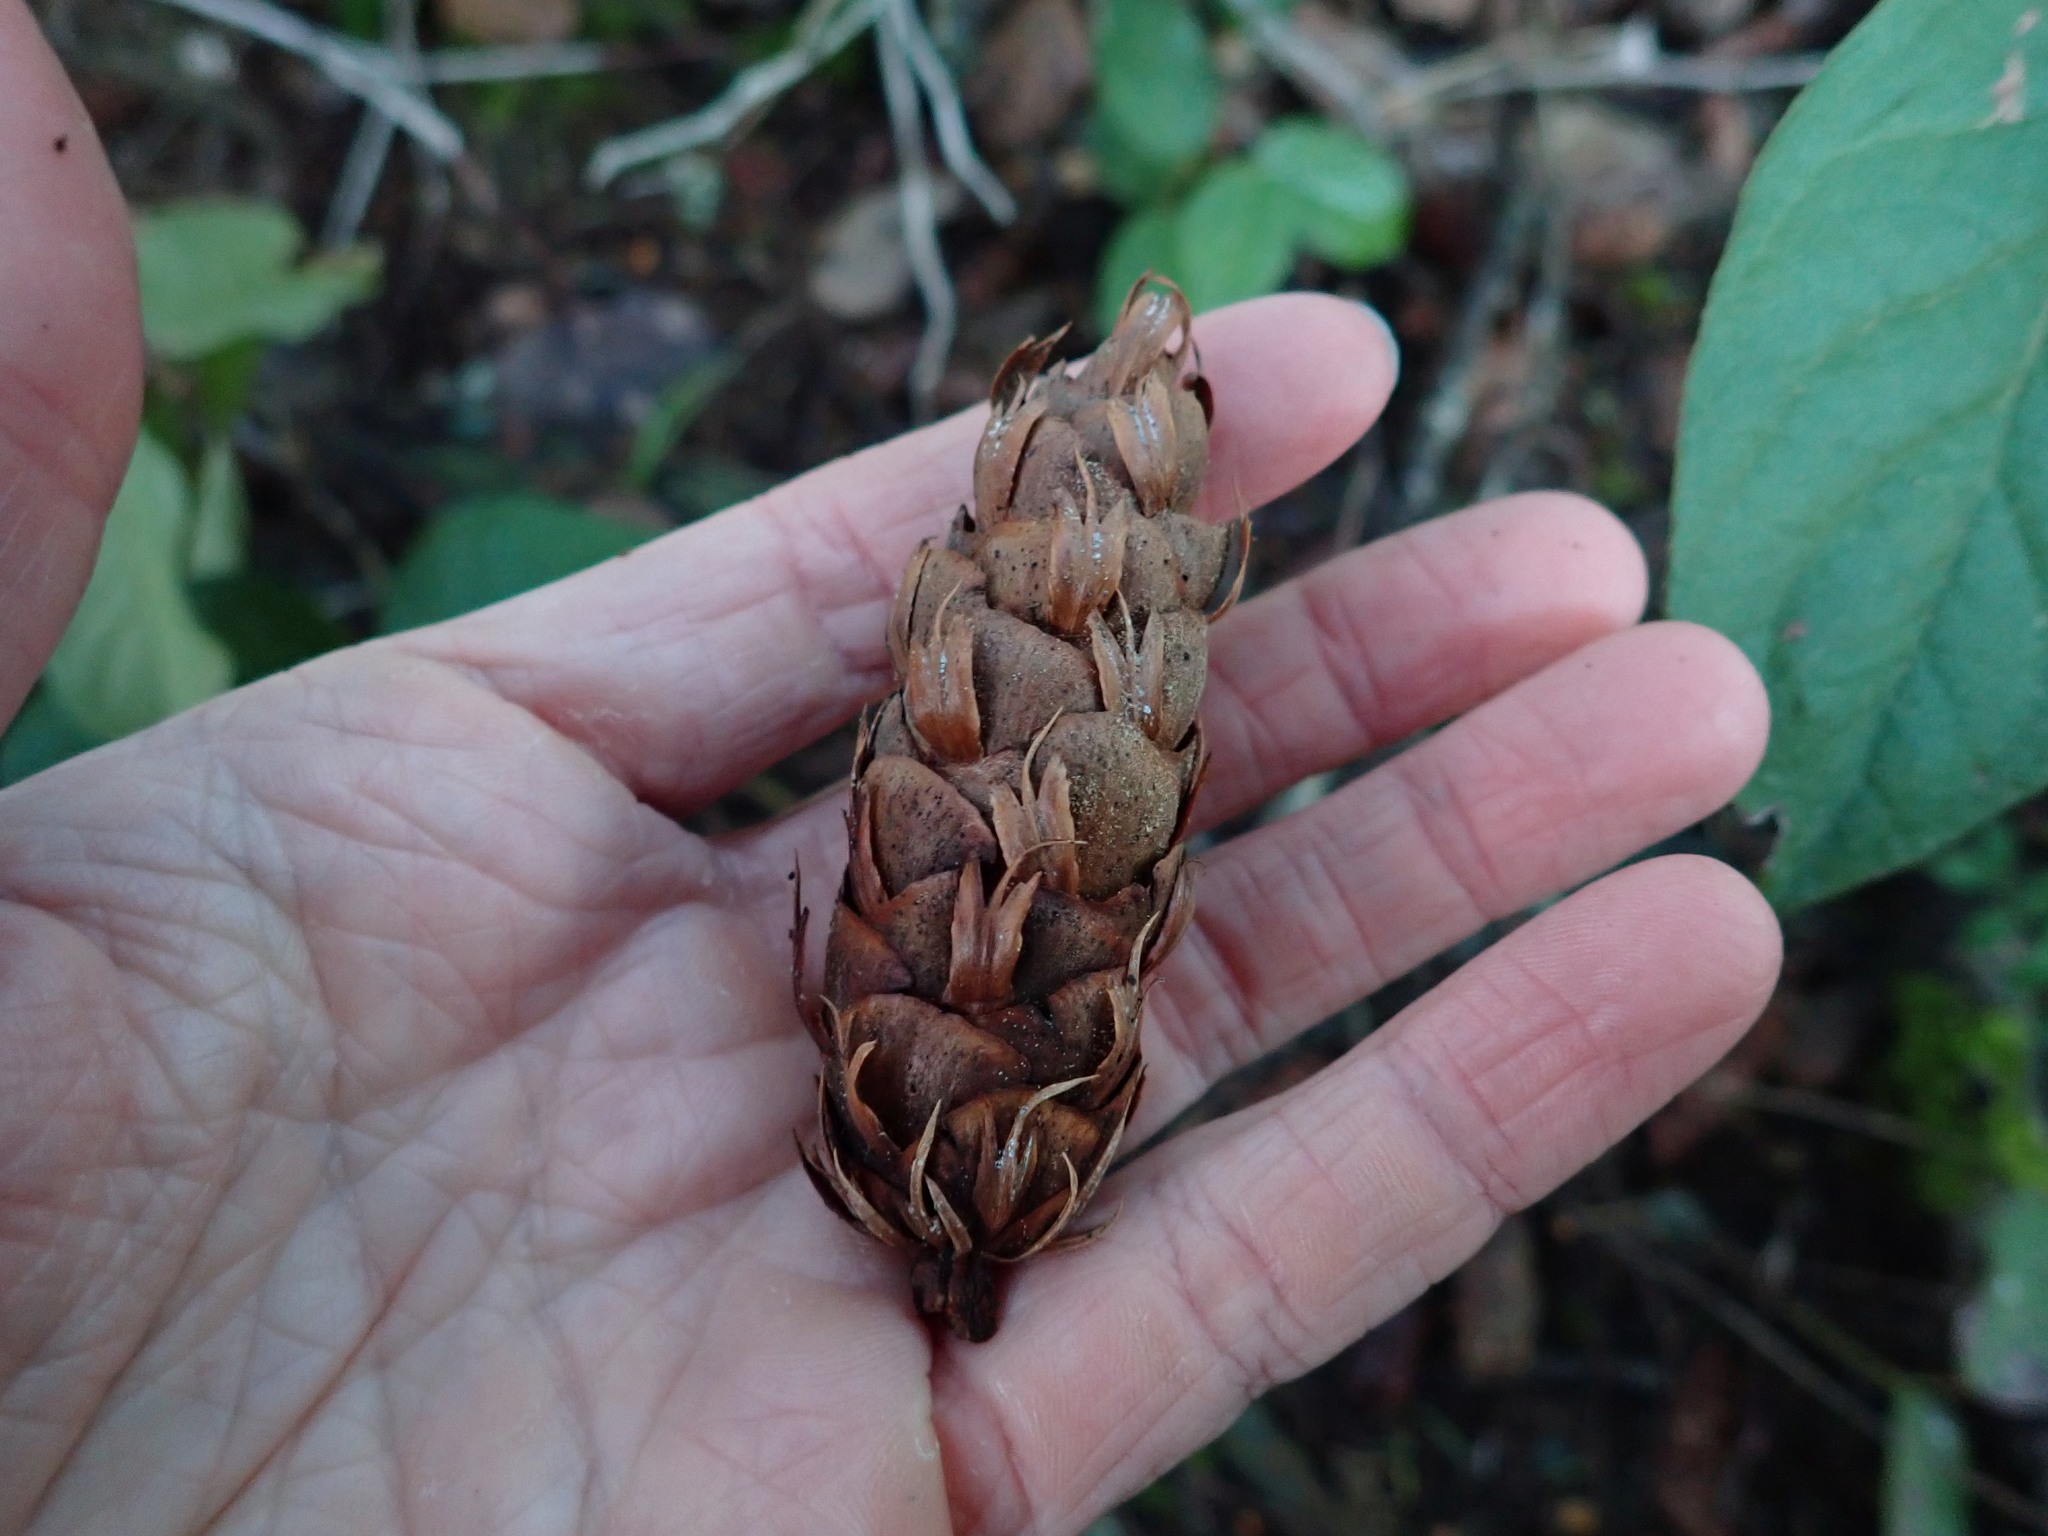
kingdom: Plantae
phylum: Tracheophyta
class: Pinopsida
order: Pinales
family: Pinaceae
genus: Pseudotsuga
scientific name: Pseudotsuga menziesii
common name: Douglas fir
